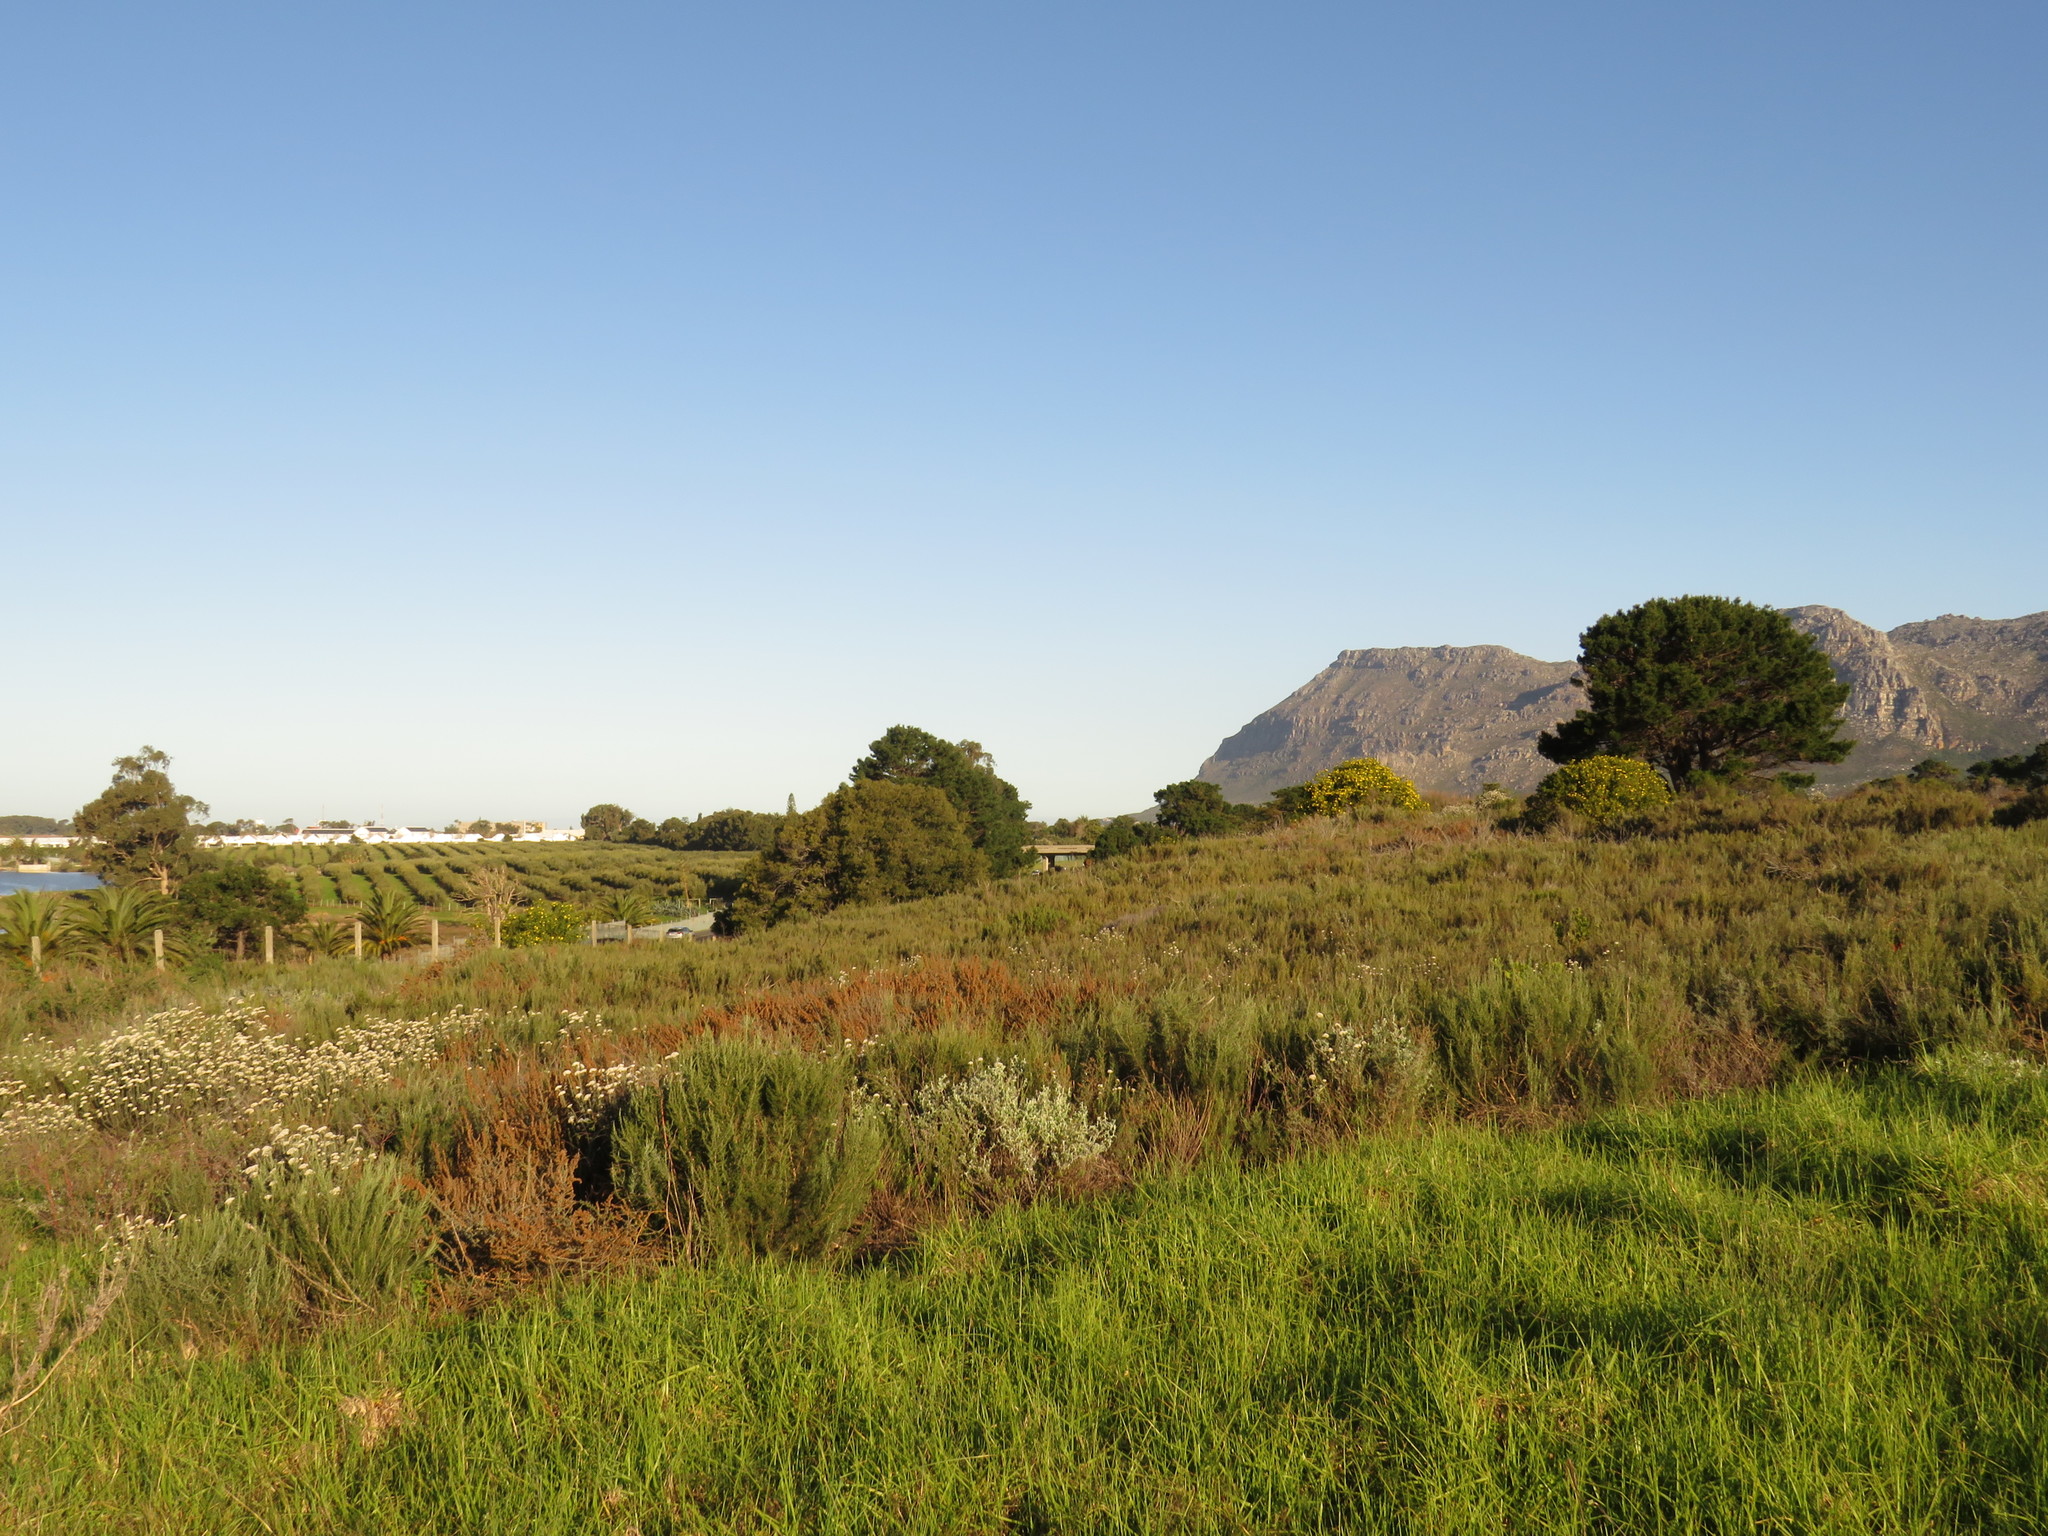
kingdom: Plantae
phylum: Tracheophyta
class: Magnoliopsida
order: Asterales
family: Asteraceae
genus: Dicerothamnus
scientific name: Dicerothamnus rhinocerotis
